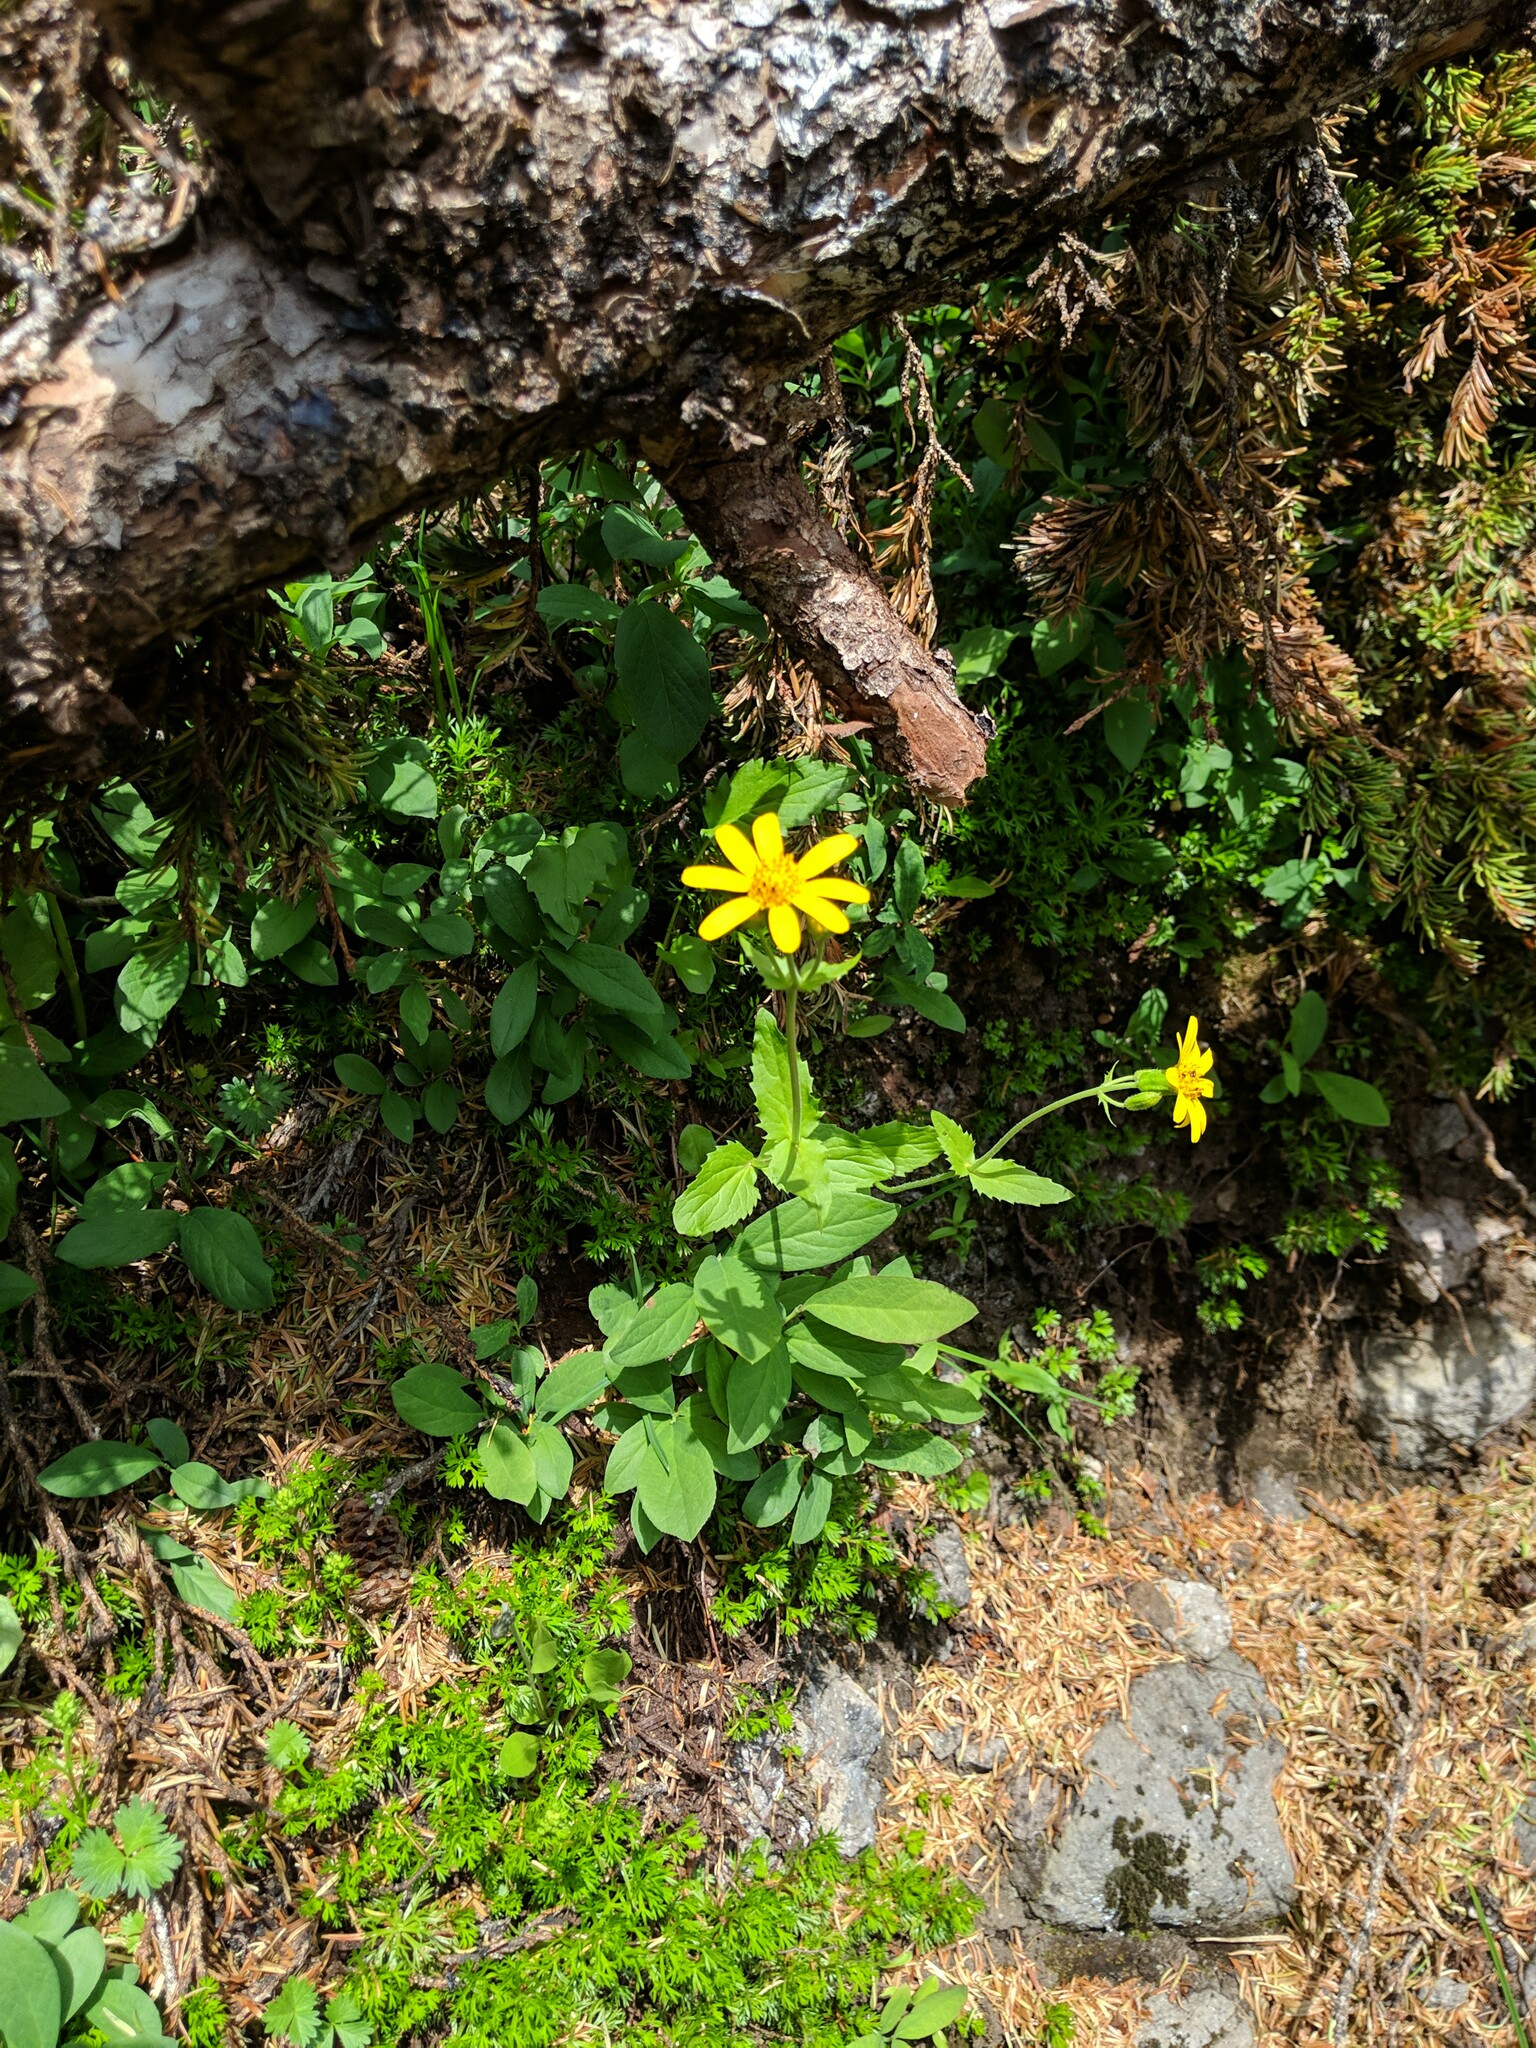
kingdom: Plantae
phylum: Tracheophyta
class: Magnoliopsida
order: Asterales
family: Asteraceae
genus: Arnica
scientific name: Arnica latifolia
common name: Arnica
